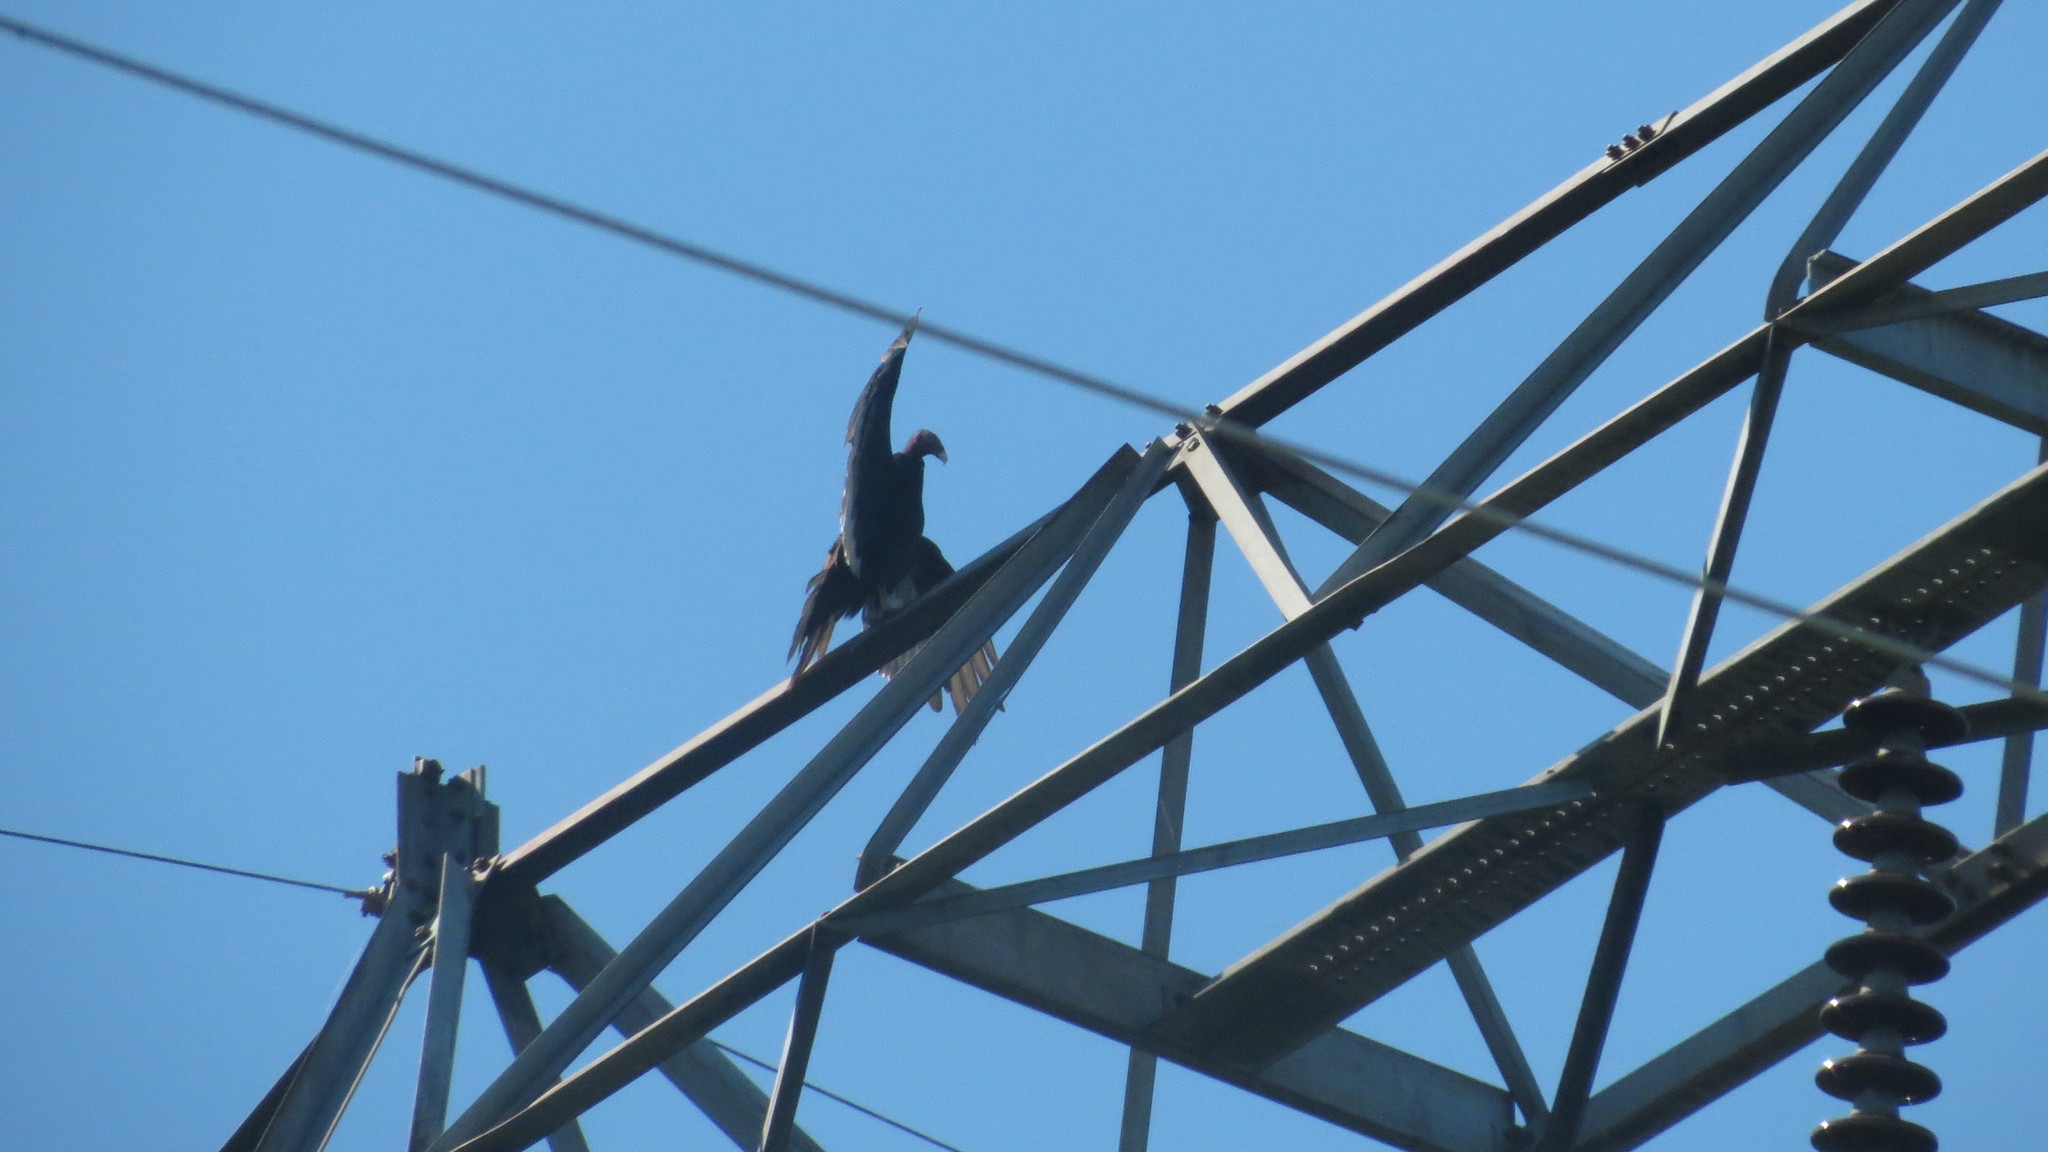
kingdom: Animalia
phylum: Chordata
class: Aves
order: Accipitriformes
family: Cathartidae
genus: Cathartes
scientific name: Cathartes aura
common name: Turkey vulture
